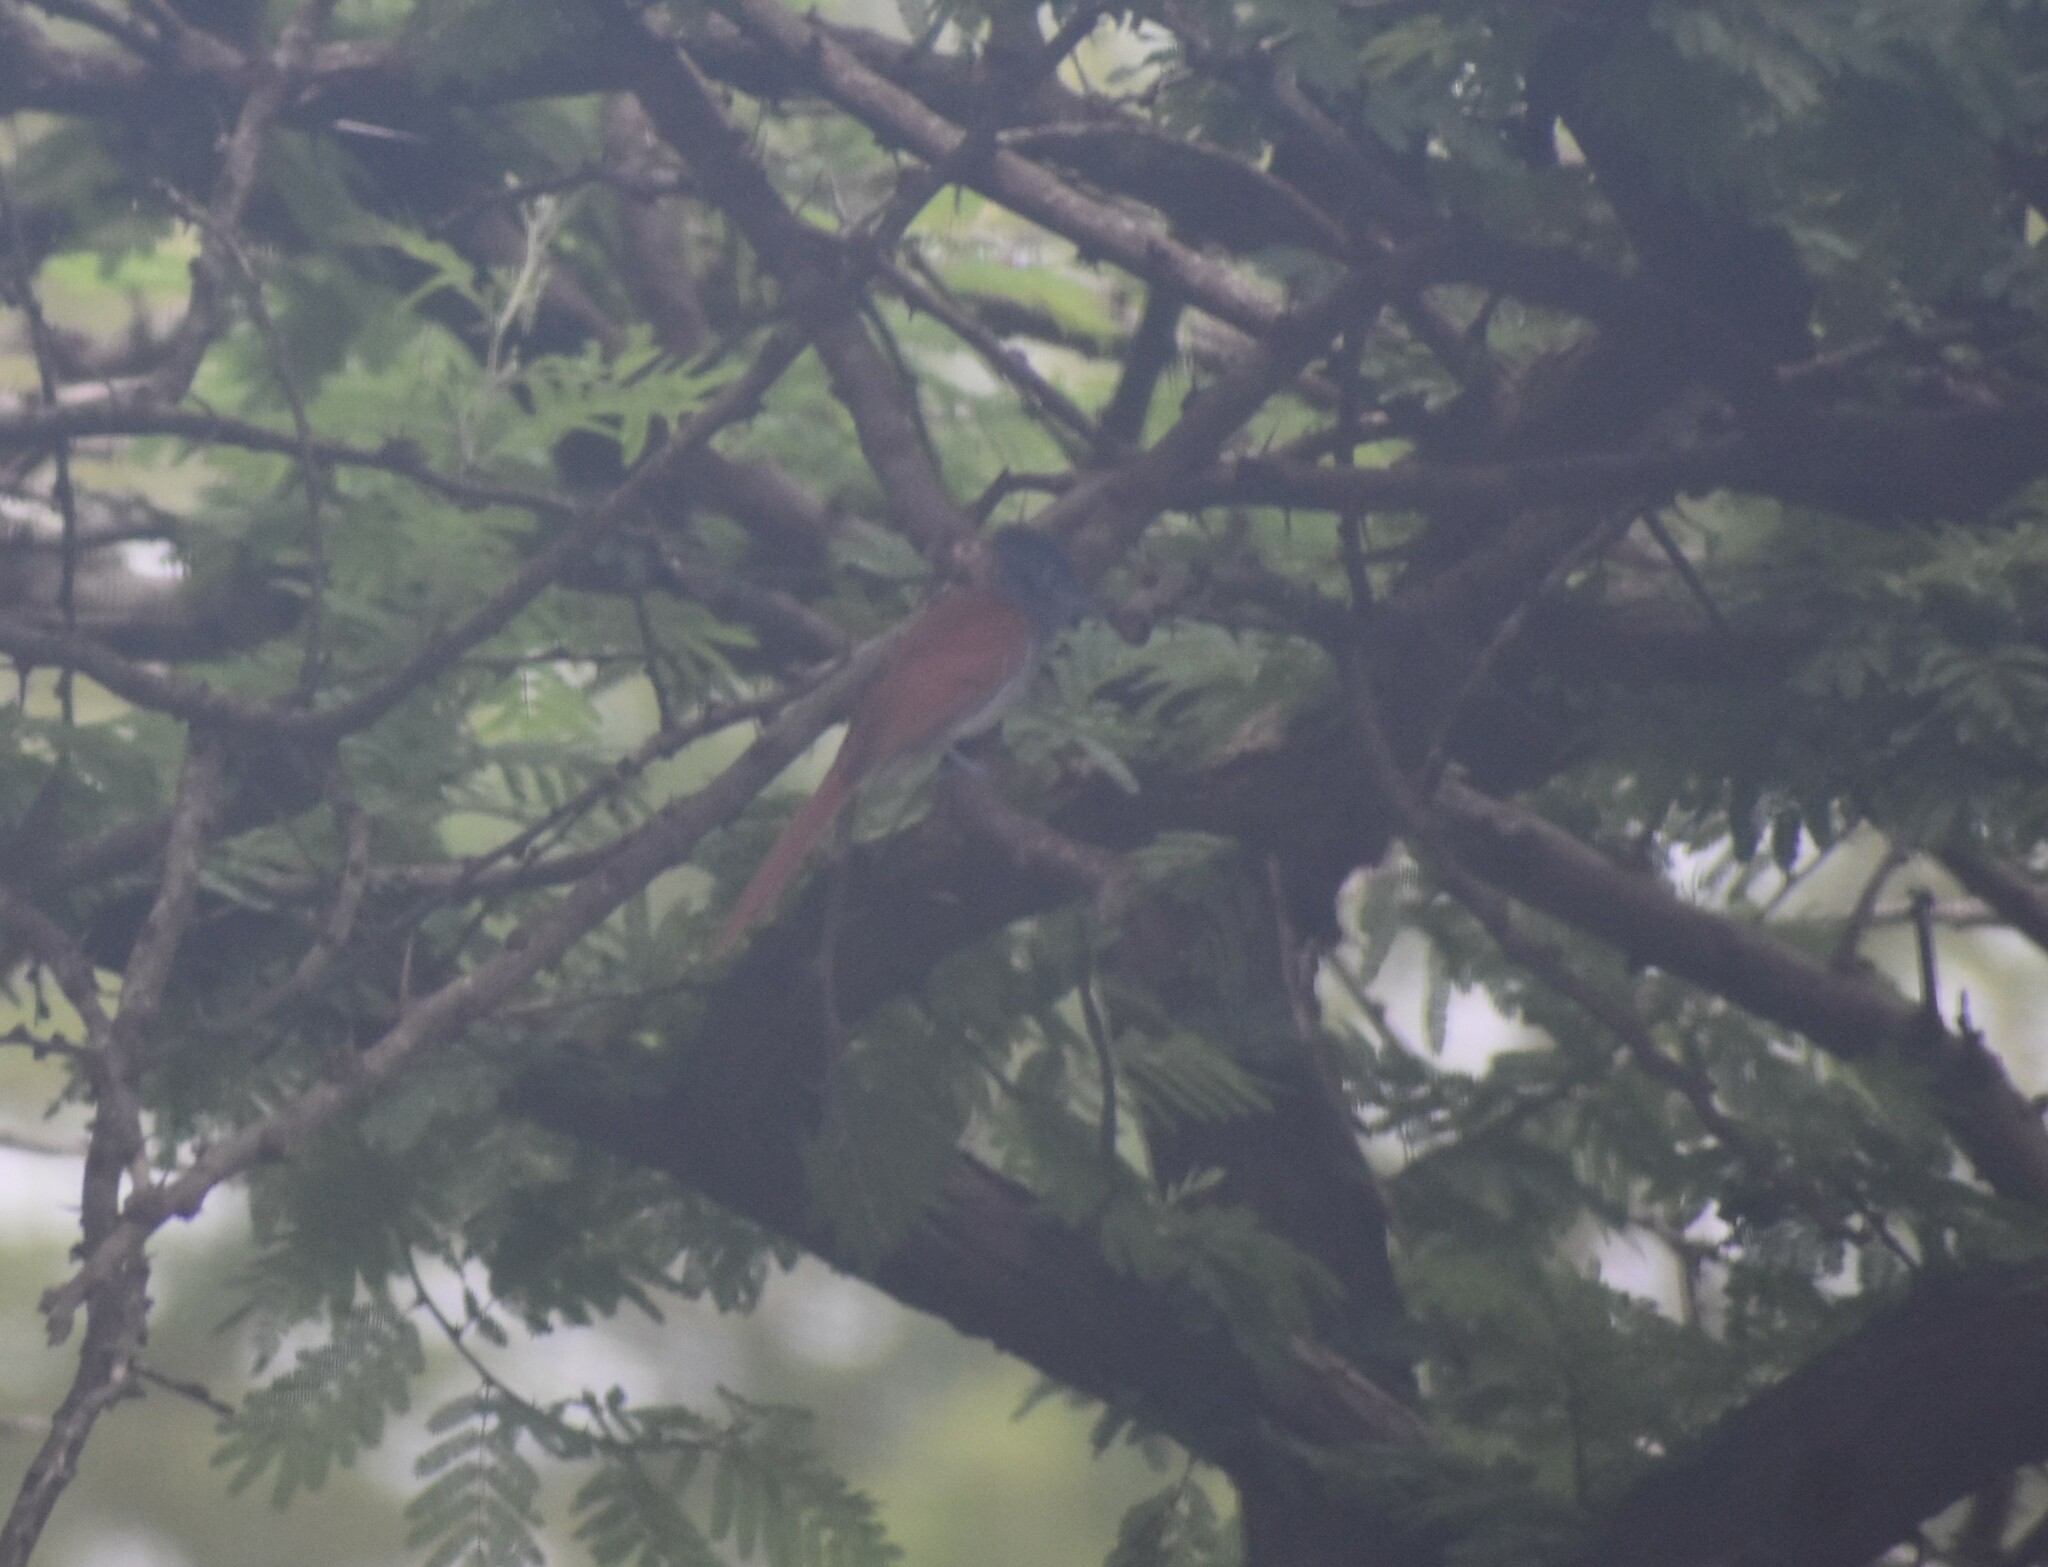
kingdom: Animalia
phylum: Chordata
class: Aves
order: Passeriformes
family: Monarchidae
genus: Terpsiphone
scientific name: Terpsiphone viridis
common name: African paradise flycatcher
